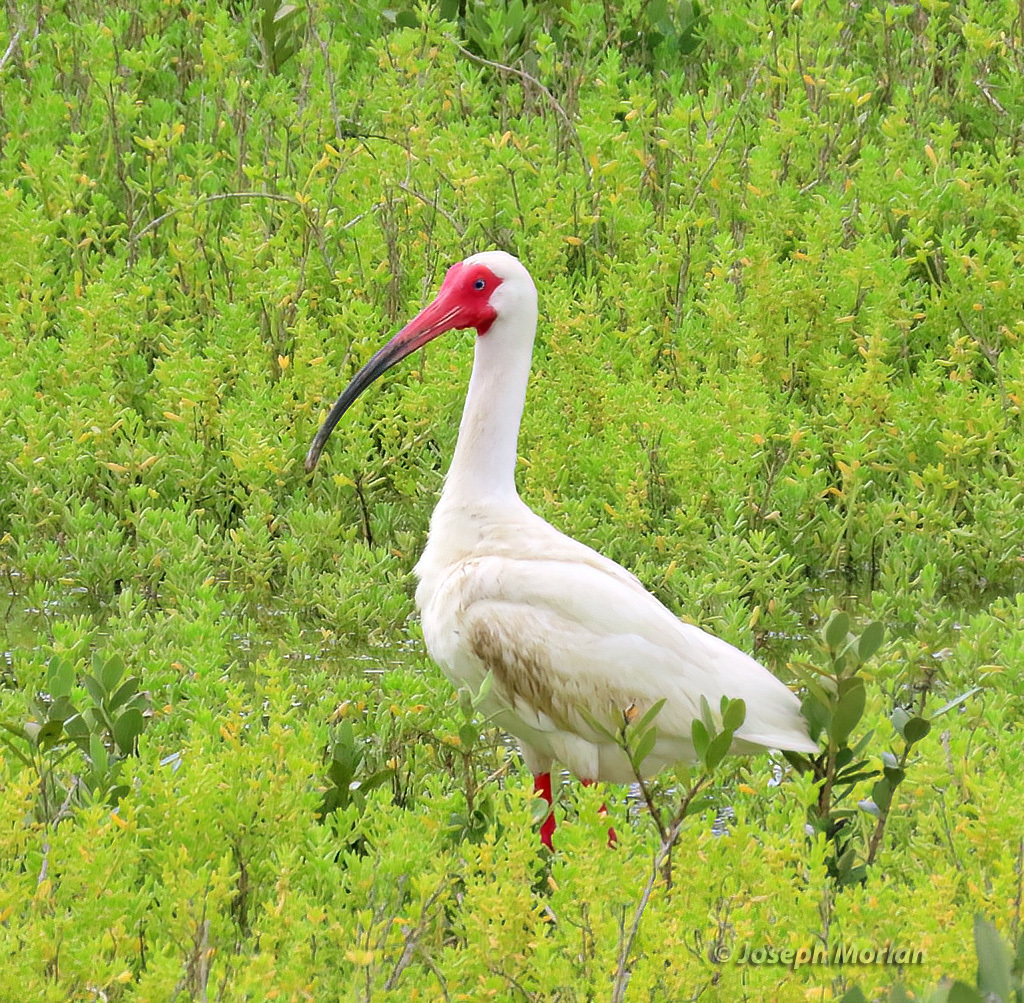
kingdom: Animalia
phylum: Chordata
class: Aves
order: Pelecaniformes
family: Threskiornithidae
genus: Eudocimus
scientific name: Eudocimus albus
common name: White ibis
